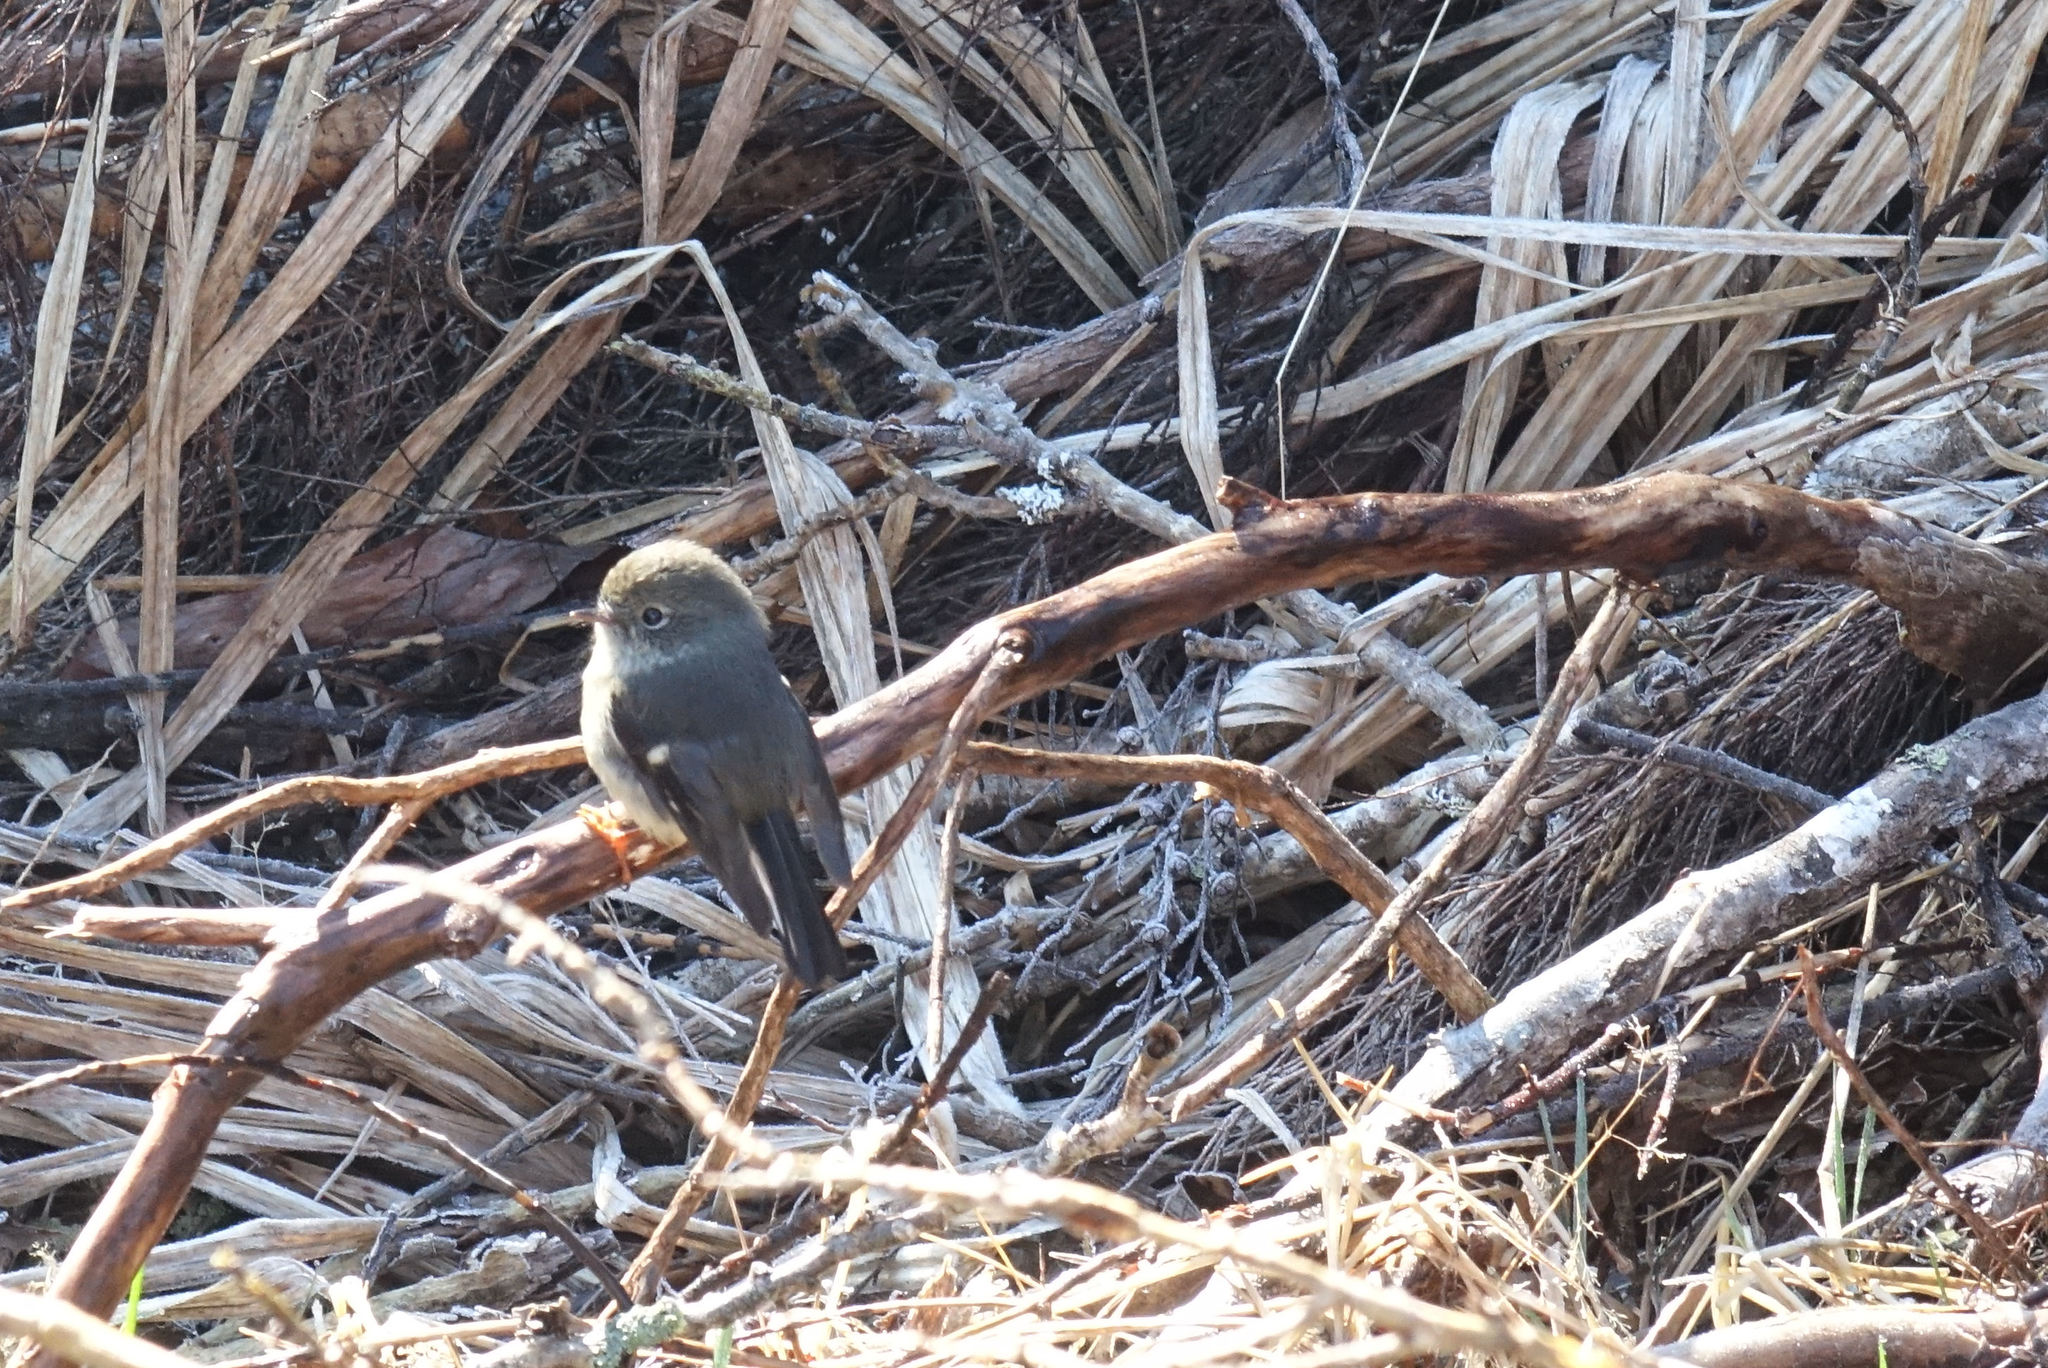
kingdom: Animalia
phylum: Chordata
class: Aves
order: Passeriformes
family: Petroicidae
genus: Petroica
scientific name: Petroica macrocephala
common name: Tomtit
